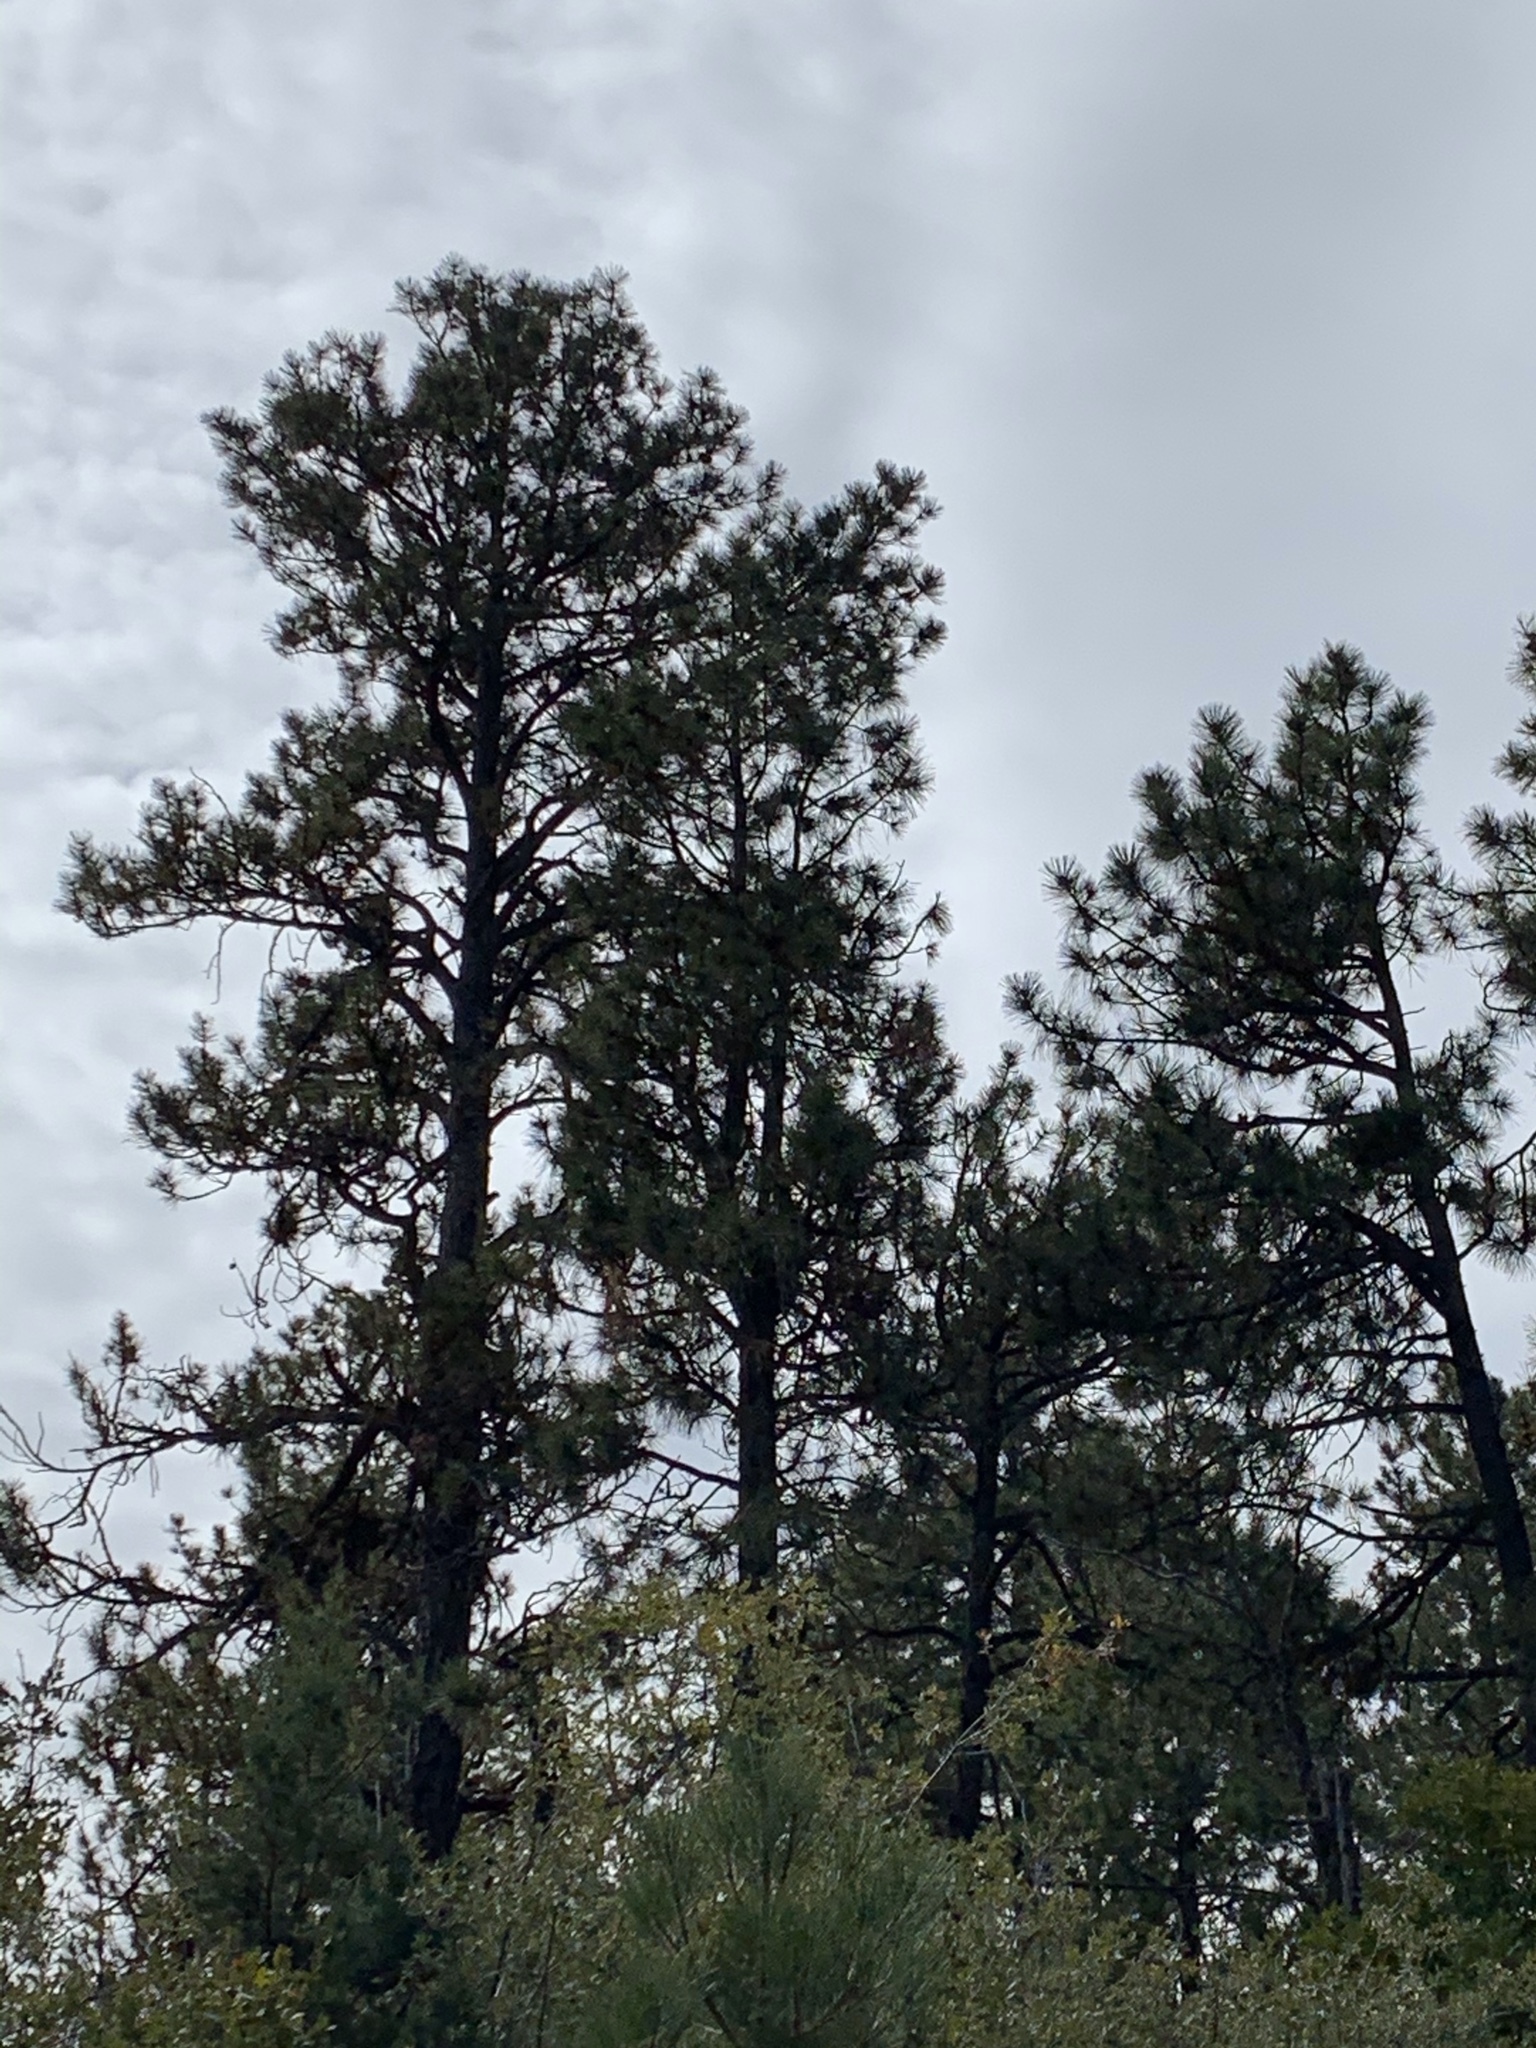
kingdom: Plantae
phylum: Tracheophyta
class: Pinopsida
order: Pinales
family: Pinaceae
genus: Pinus
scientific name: Pinus ponderosa
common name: Western yellow-pine
